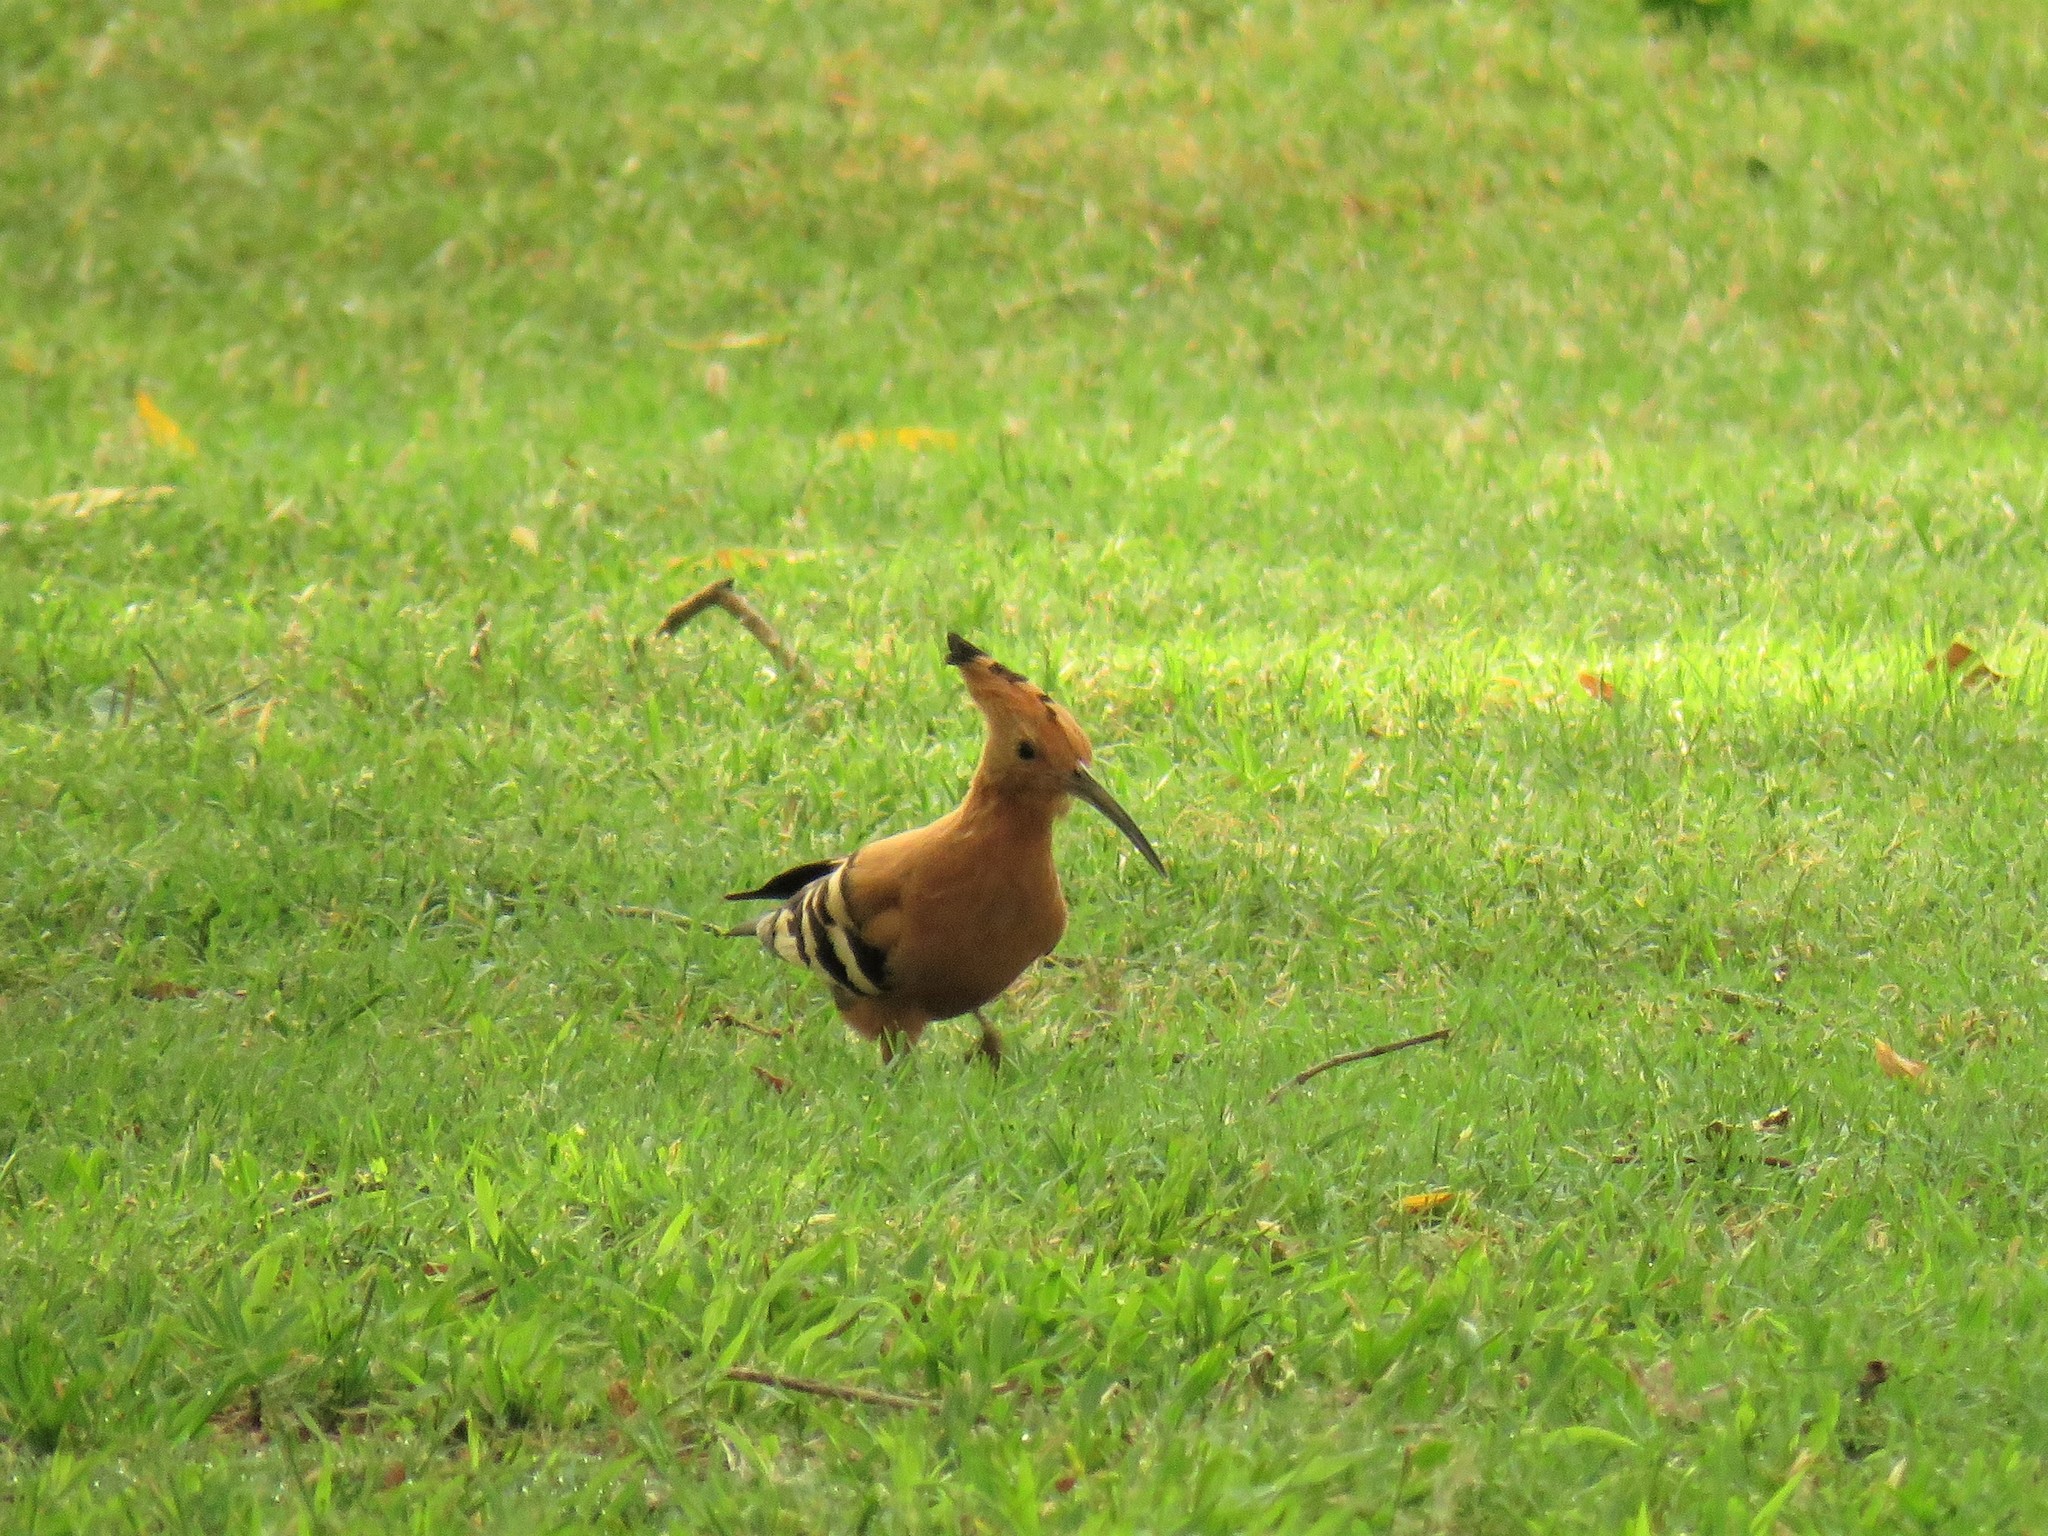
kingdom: Animalia
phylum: Chordata
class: Aves
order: Bucerotiformes
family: Upupidae
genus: Upupa
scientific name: Upupa africana
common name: African hoopoe
